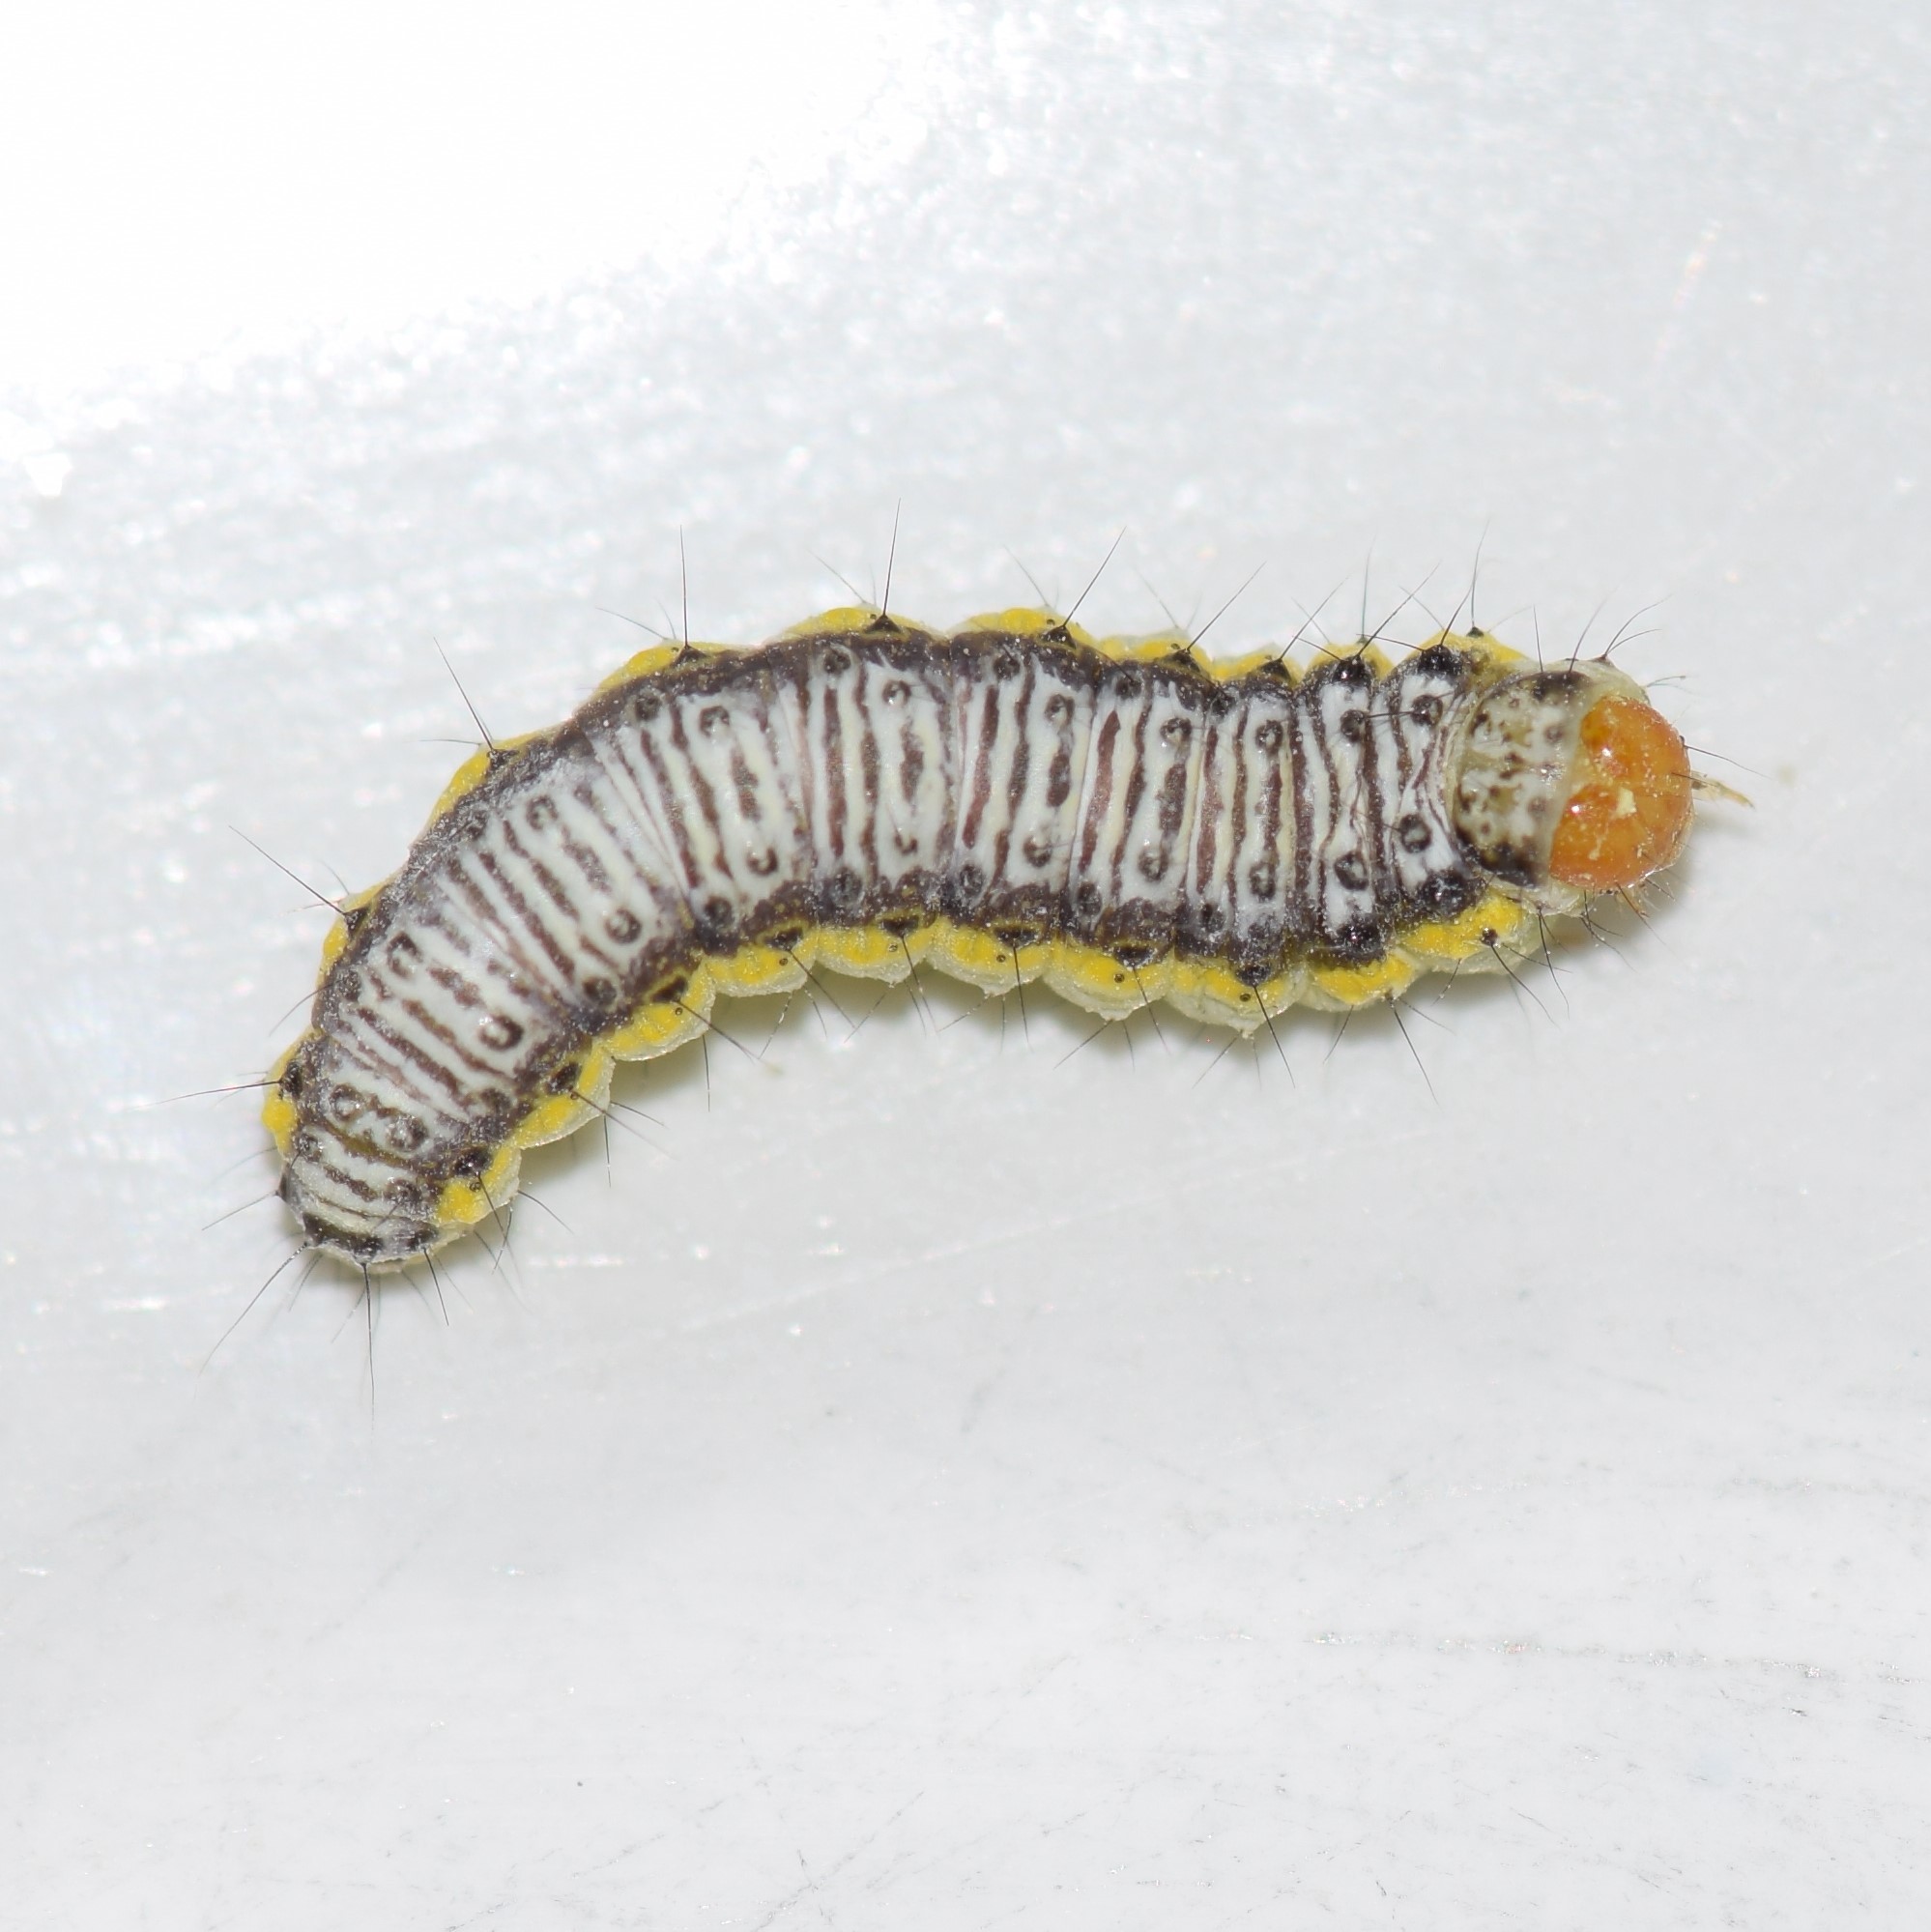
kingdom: Animalia
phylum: Arthropoda
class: Insecta
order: Lepidoptera
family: Crambidae
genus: Evergestis
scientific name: Evergestis rimosalis
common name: Cross-striped cabbageworm moth
